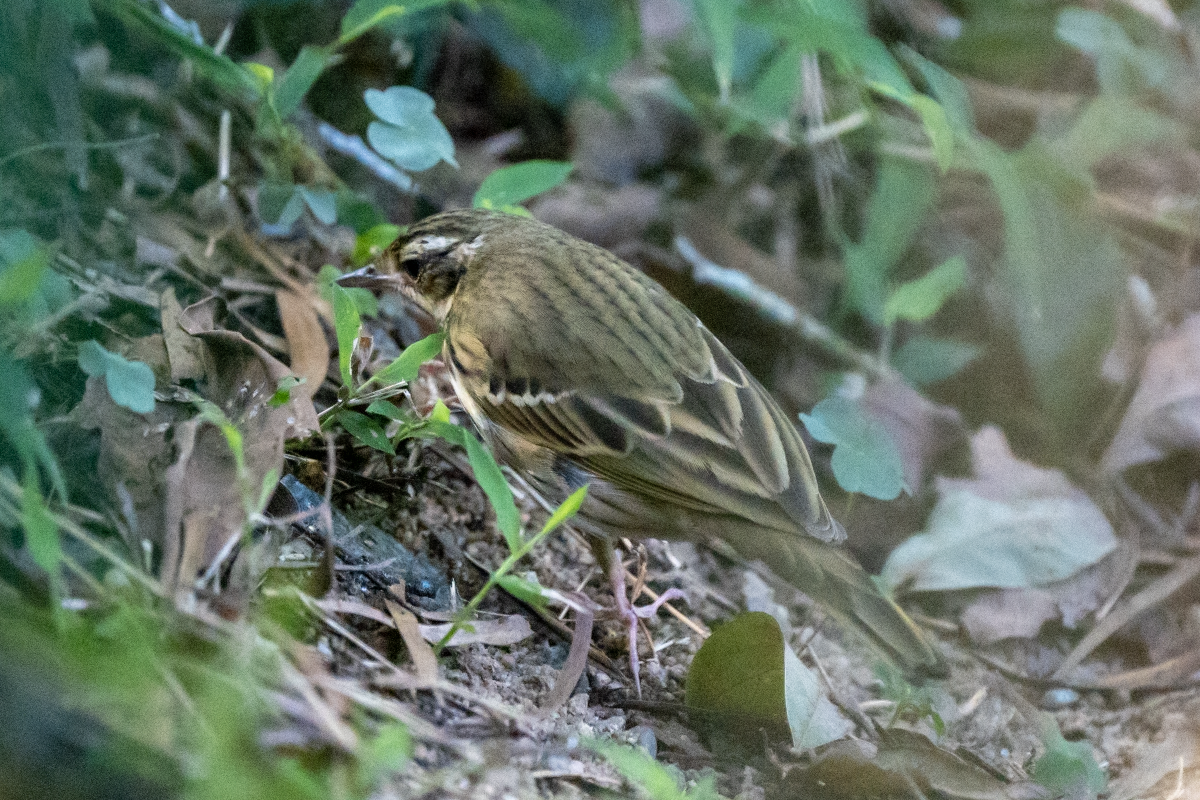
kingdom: Animalia
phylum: Chordata
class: Aves
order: Passeriformes
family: Motacillidae
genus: Anthus
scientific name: Anthus hodgsoni
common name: Olive-backed pipit
